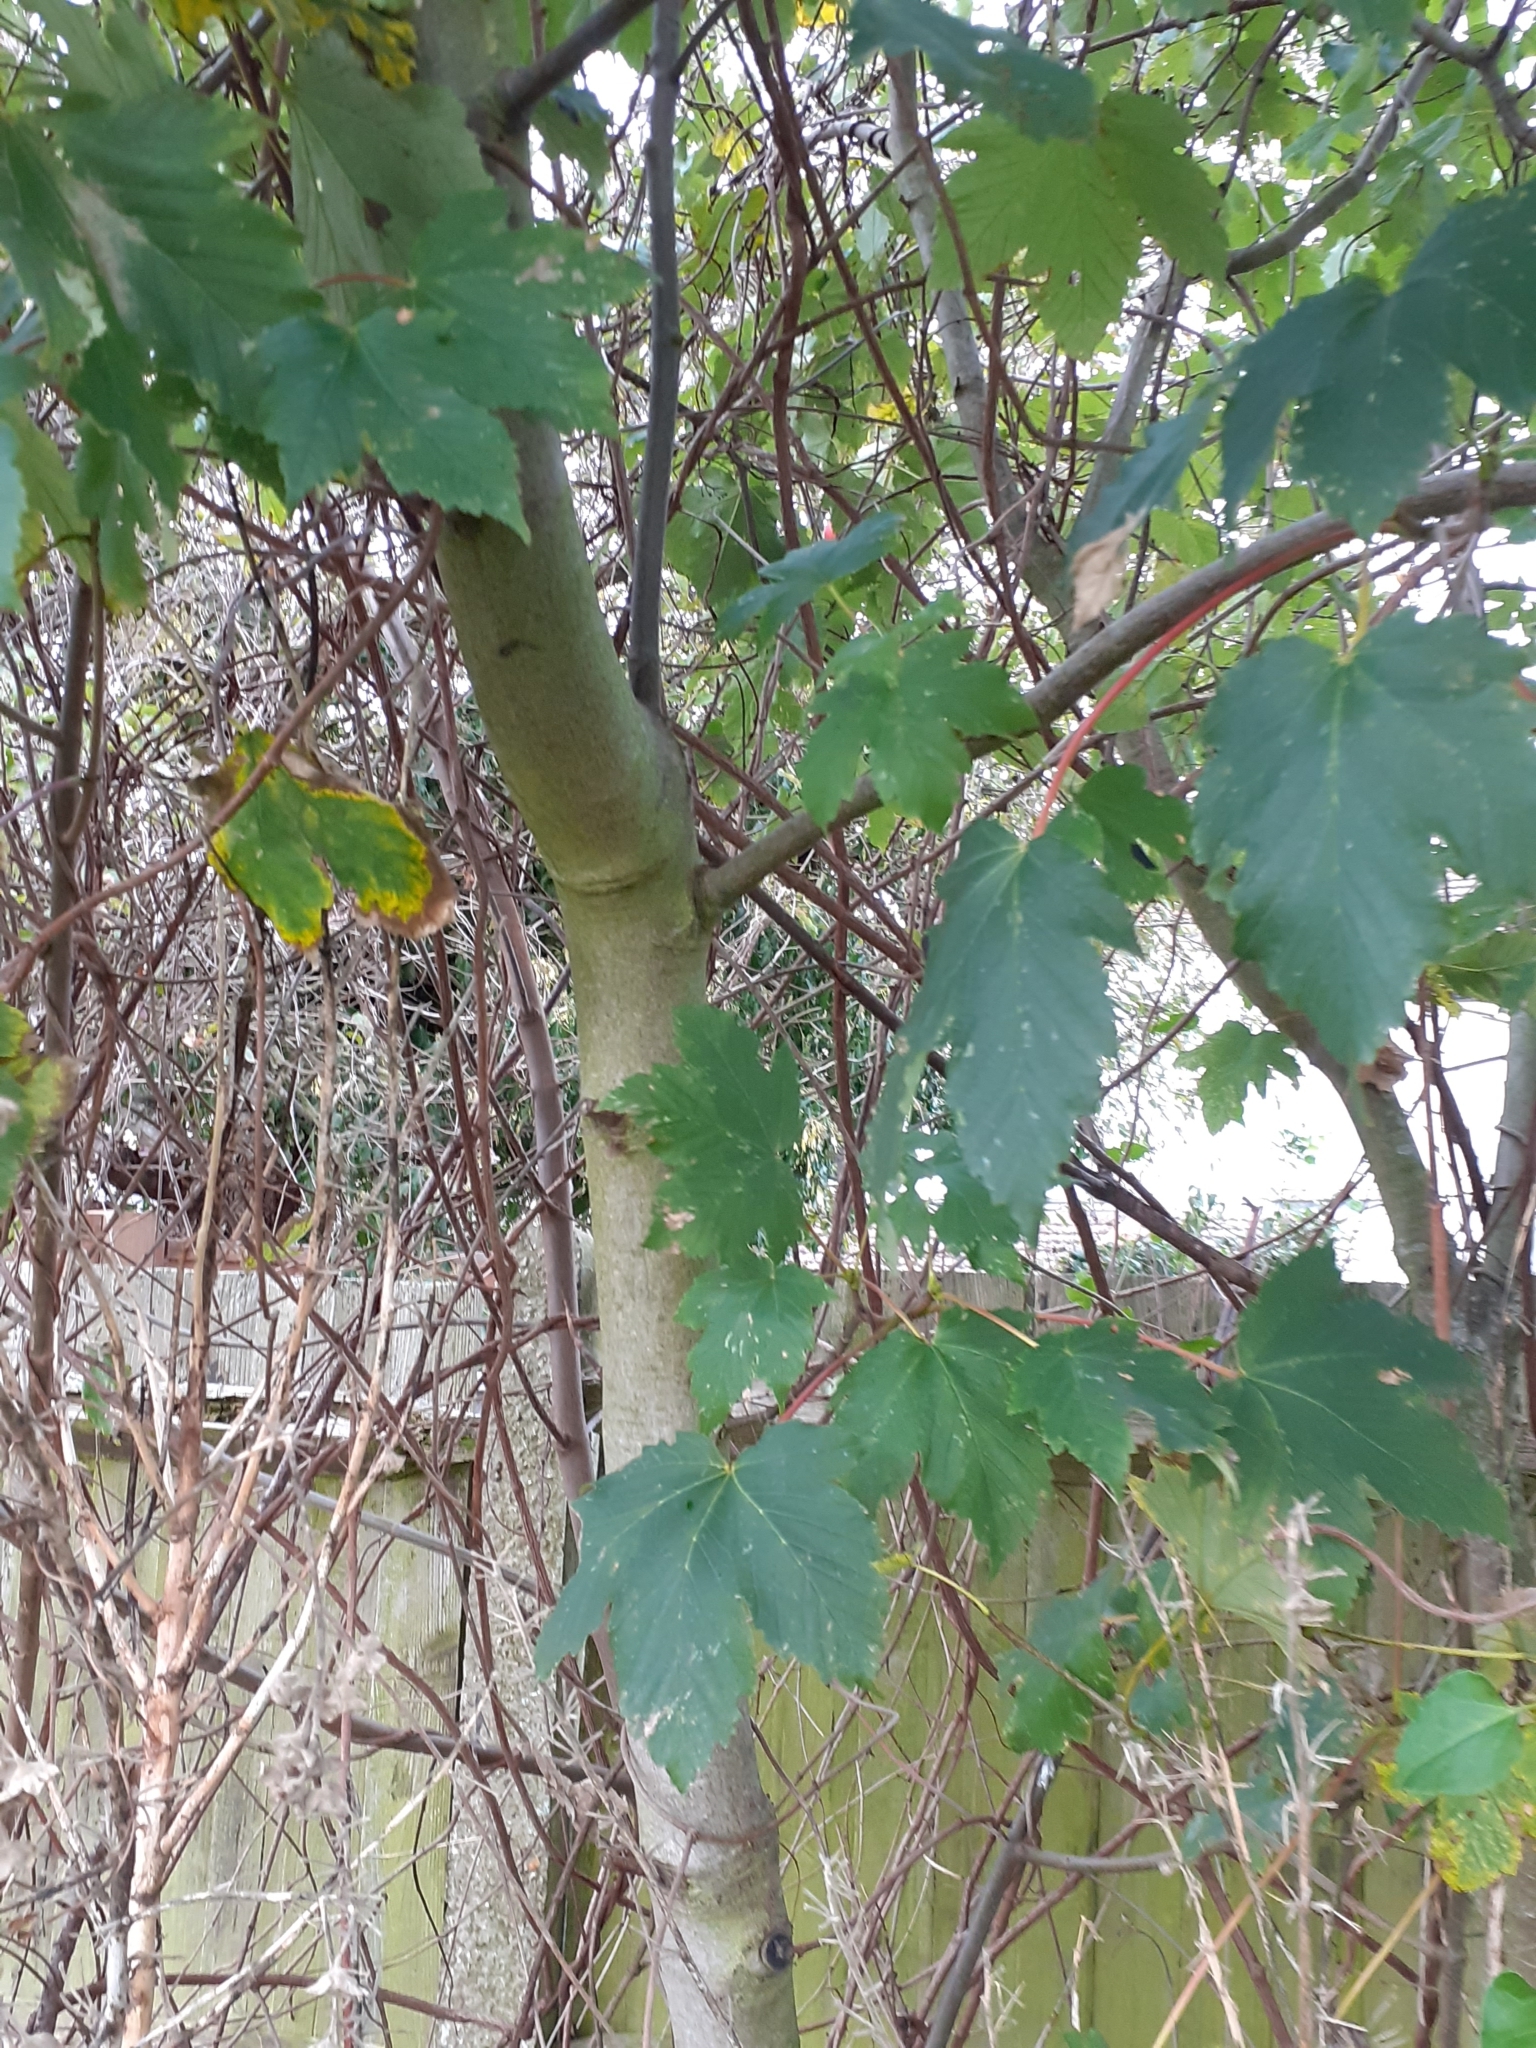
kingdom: Plantae
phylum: Tracheophyta
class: Magnoliopsida
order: Sapindales
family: Sapindaceae
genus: Acer
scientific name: Acer pseudoplatanus
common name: Sycamore
